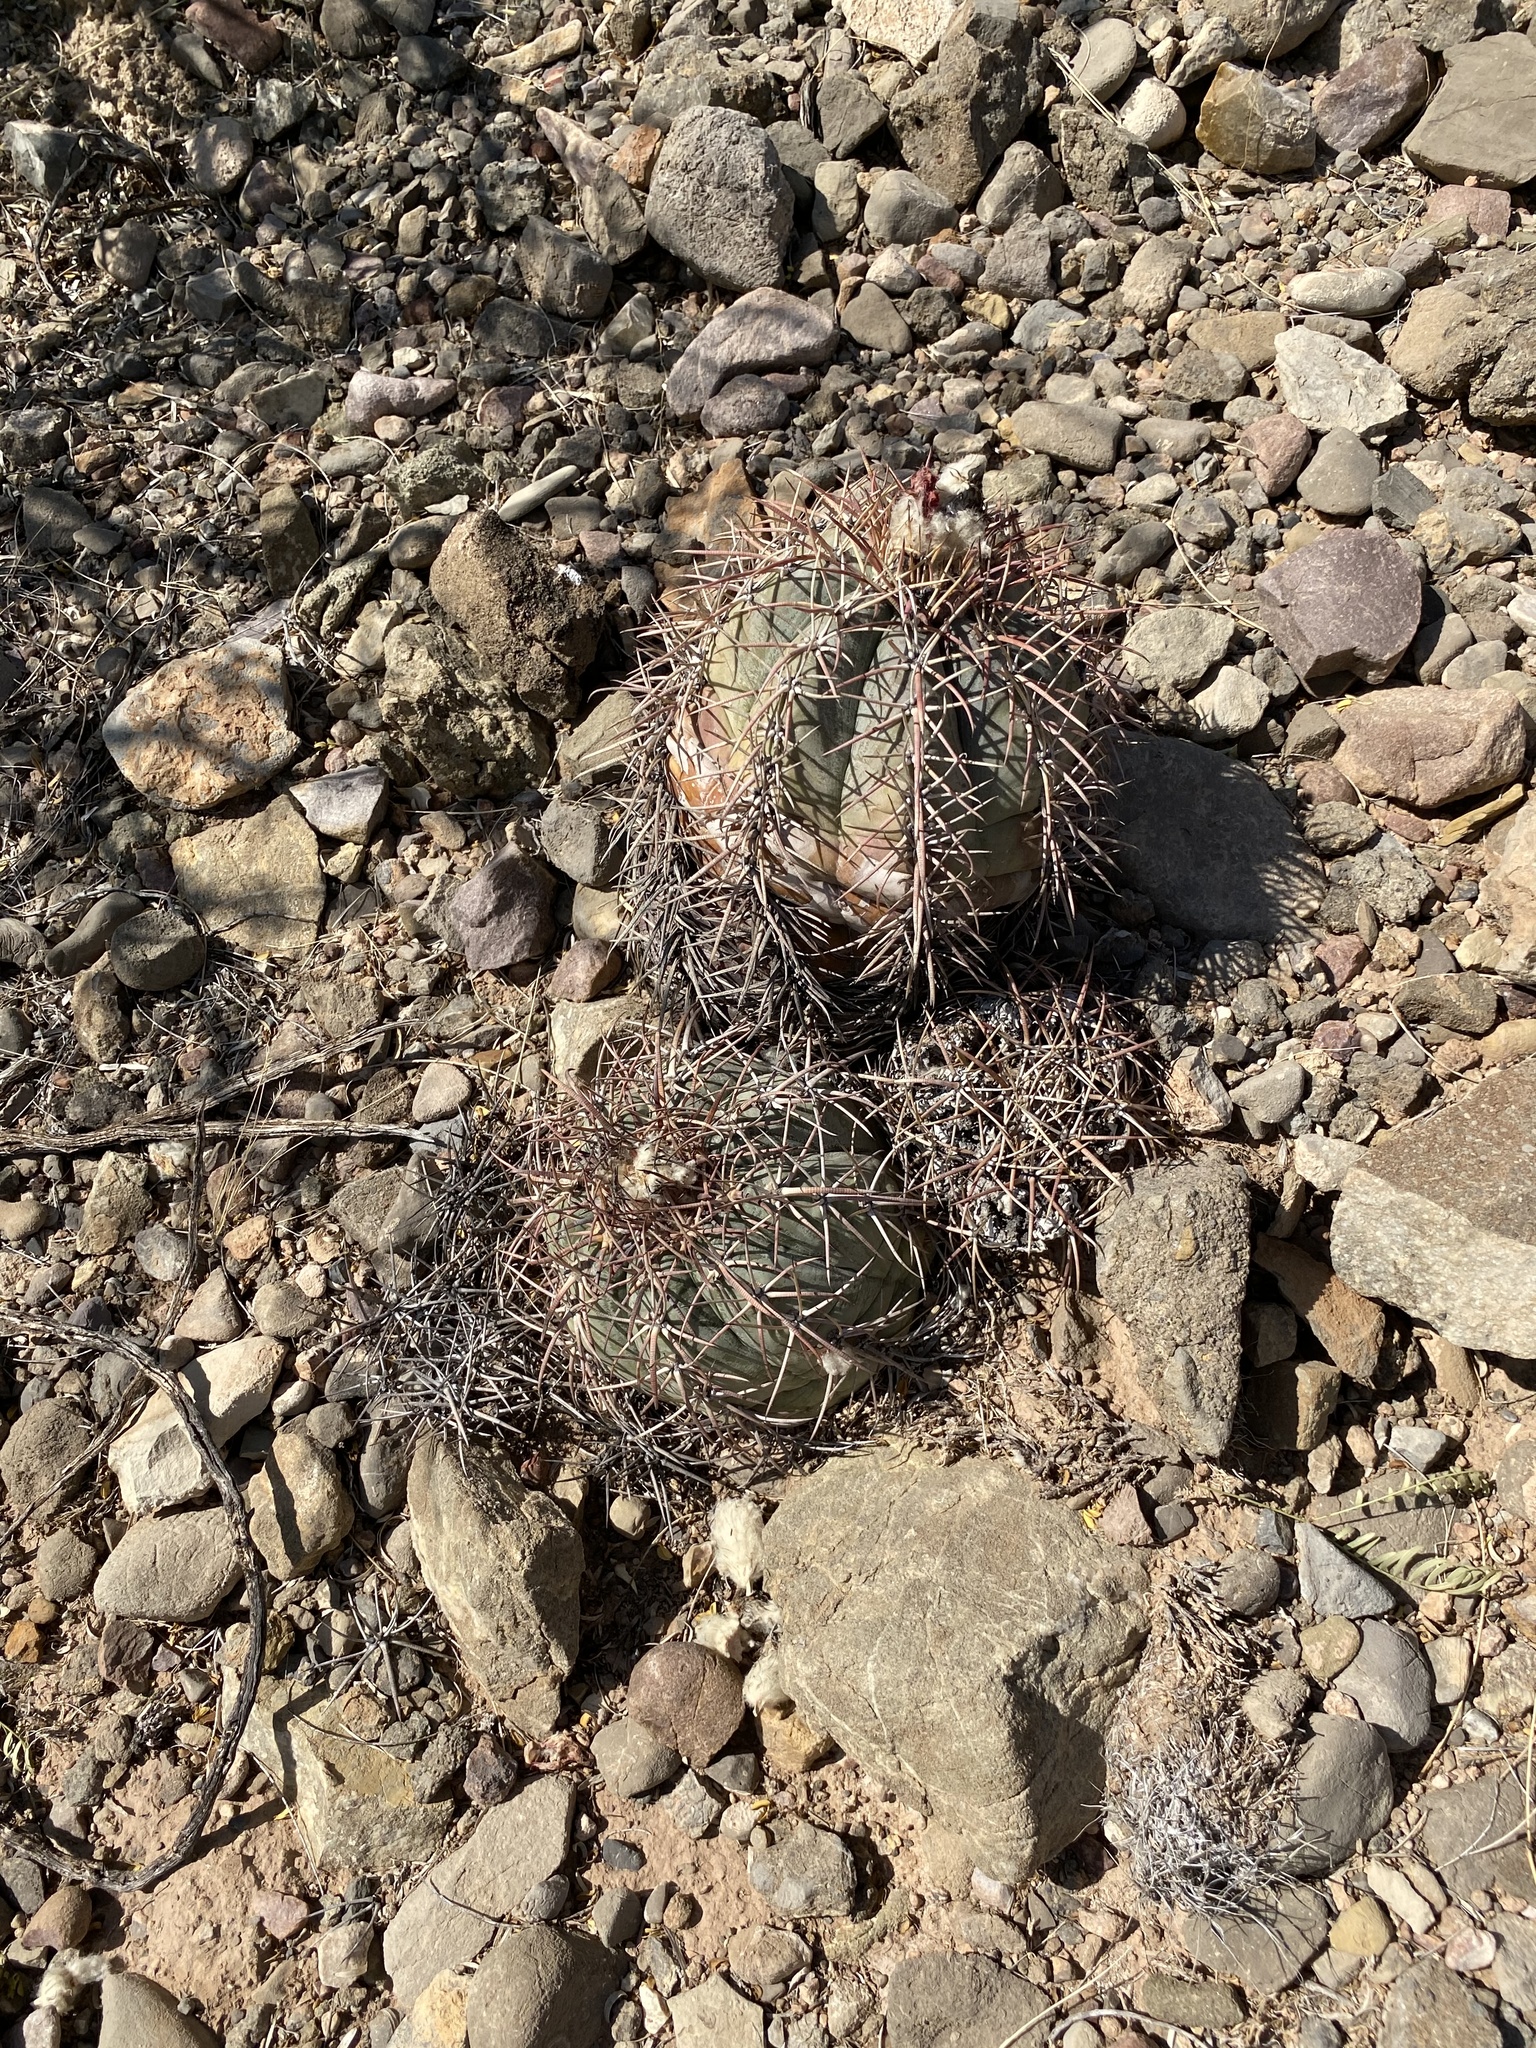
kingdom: Plantae
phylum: Tracheophyta
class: Magnoliopsida
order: Caryophyllales
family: Cactaceae
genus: Echinocactus
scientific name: Echinocactus horizonthalonius
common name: Devilshead
